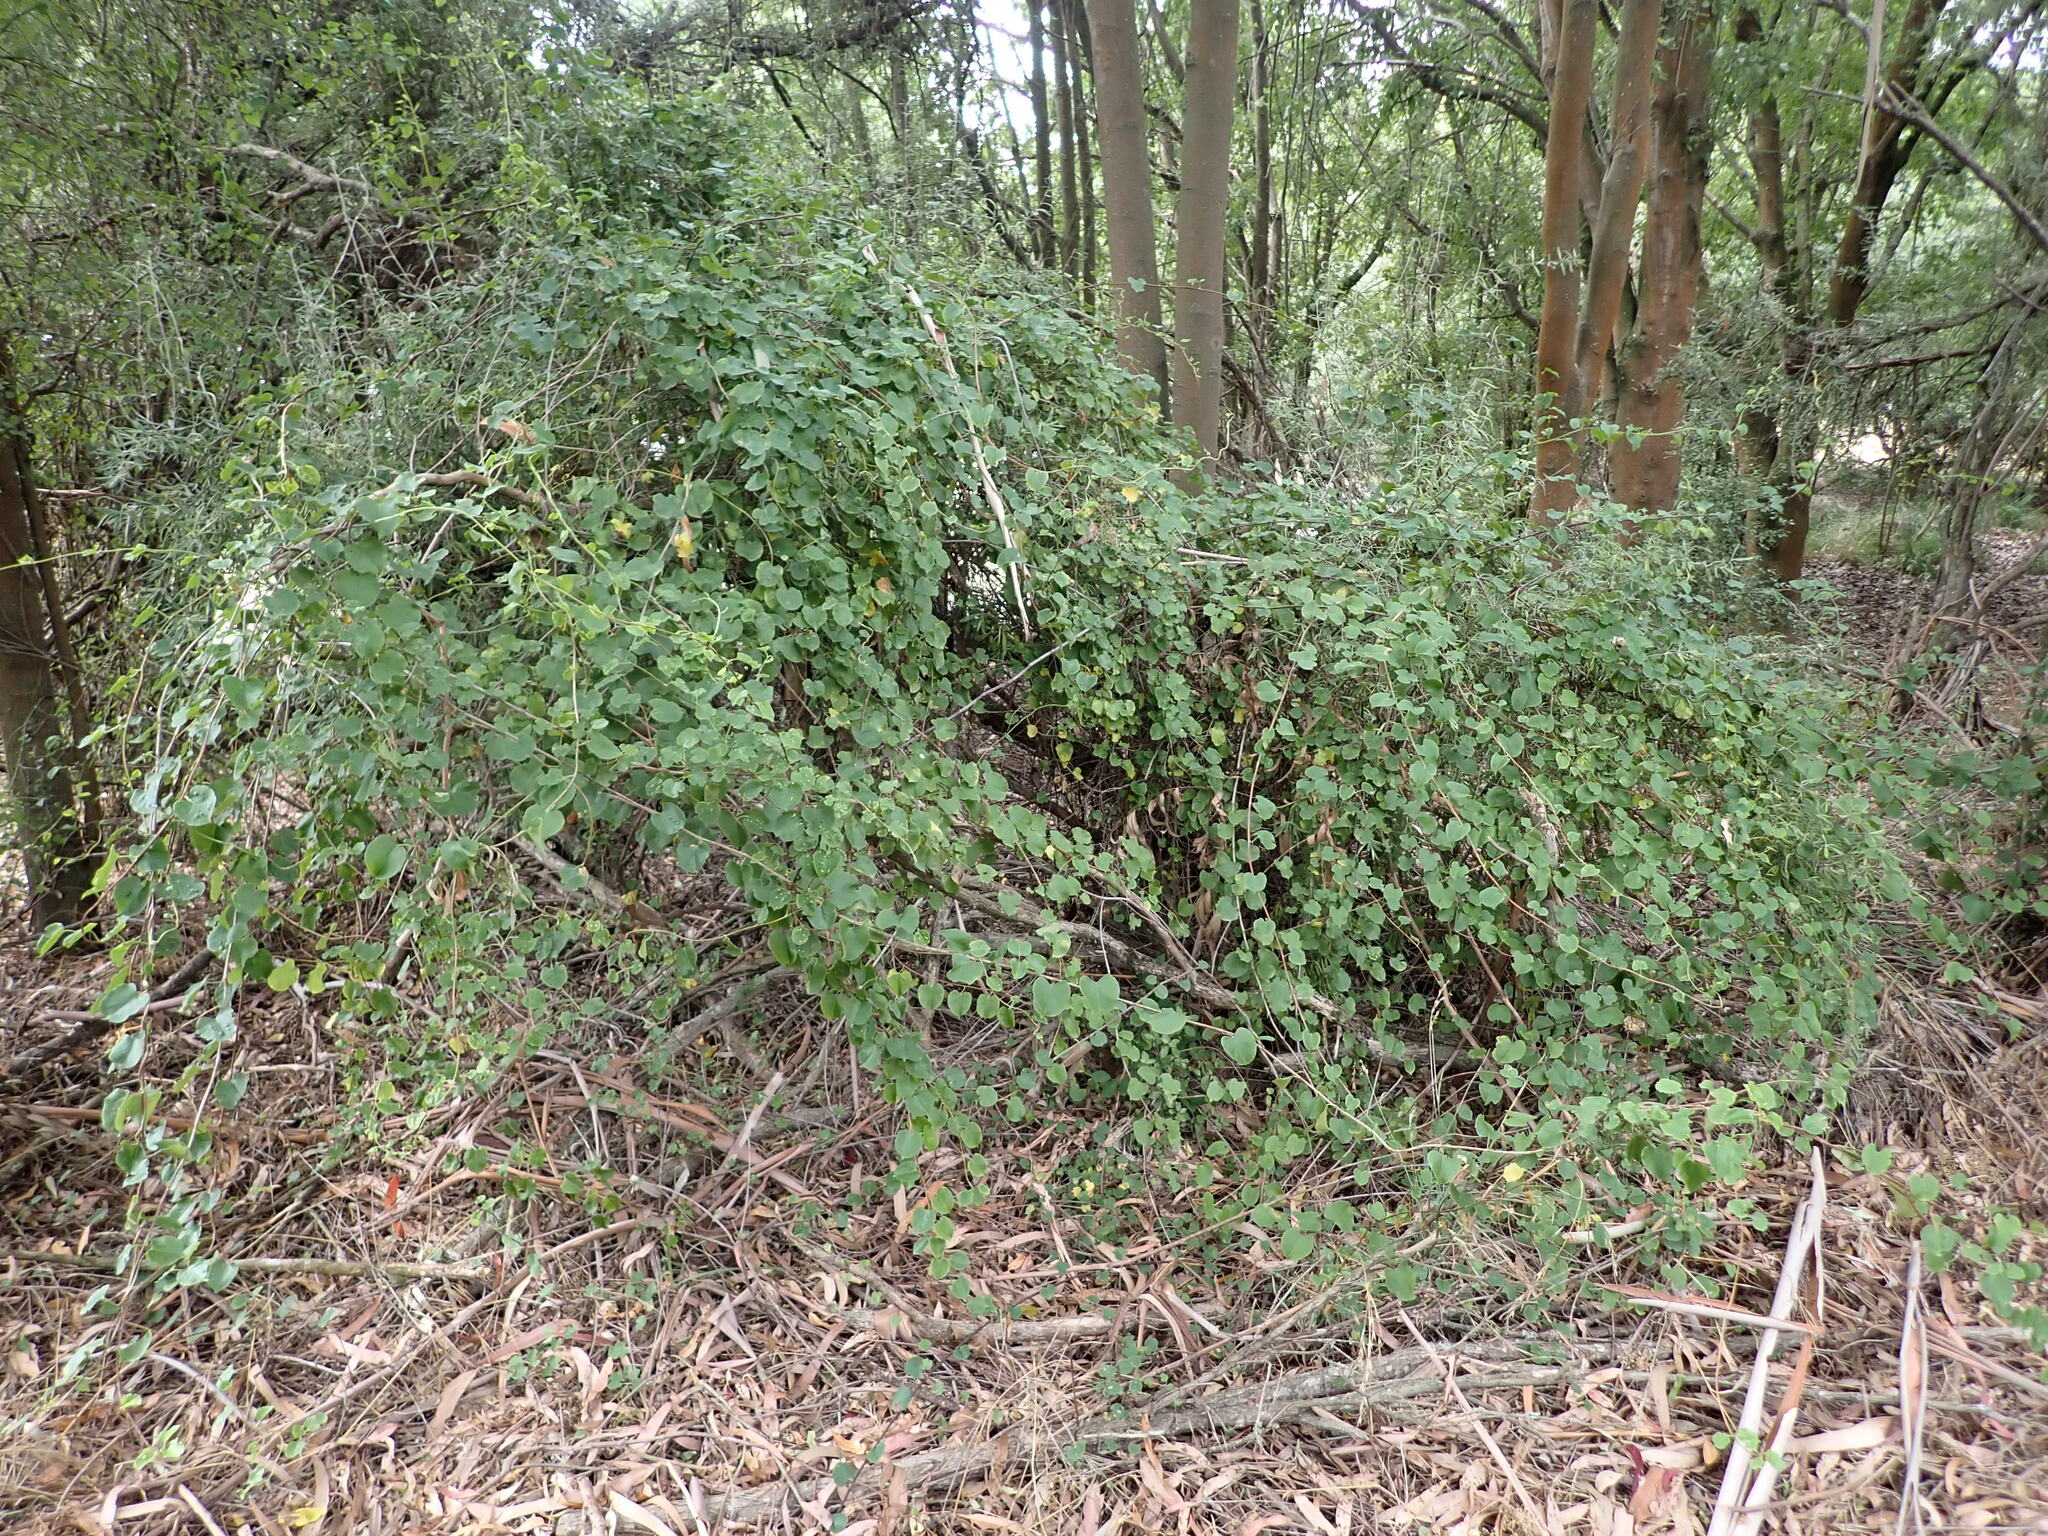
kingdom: Plantae
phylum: Tracheophyta
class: Magnoliopsida
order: Caryophyllales
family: Polygonaceae
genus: Muehlenbeckia
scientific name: Muehlenbeckia australis
